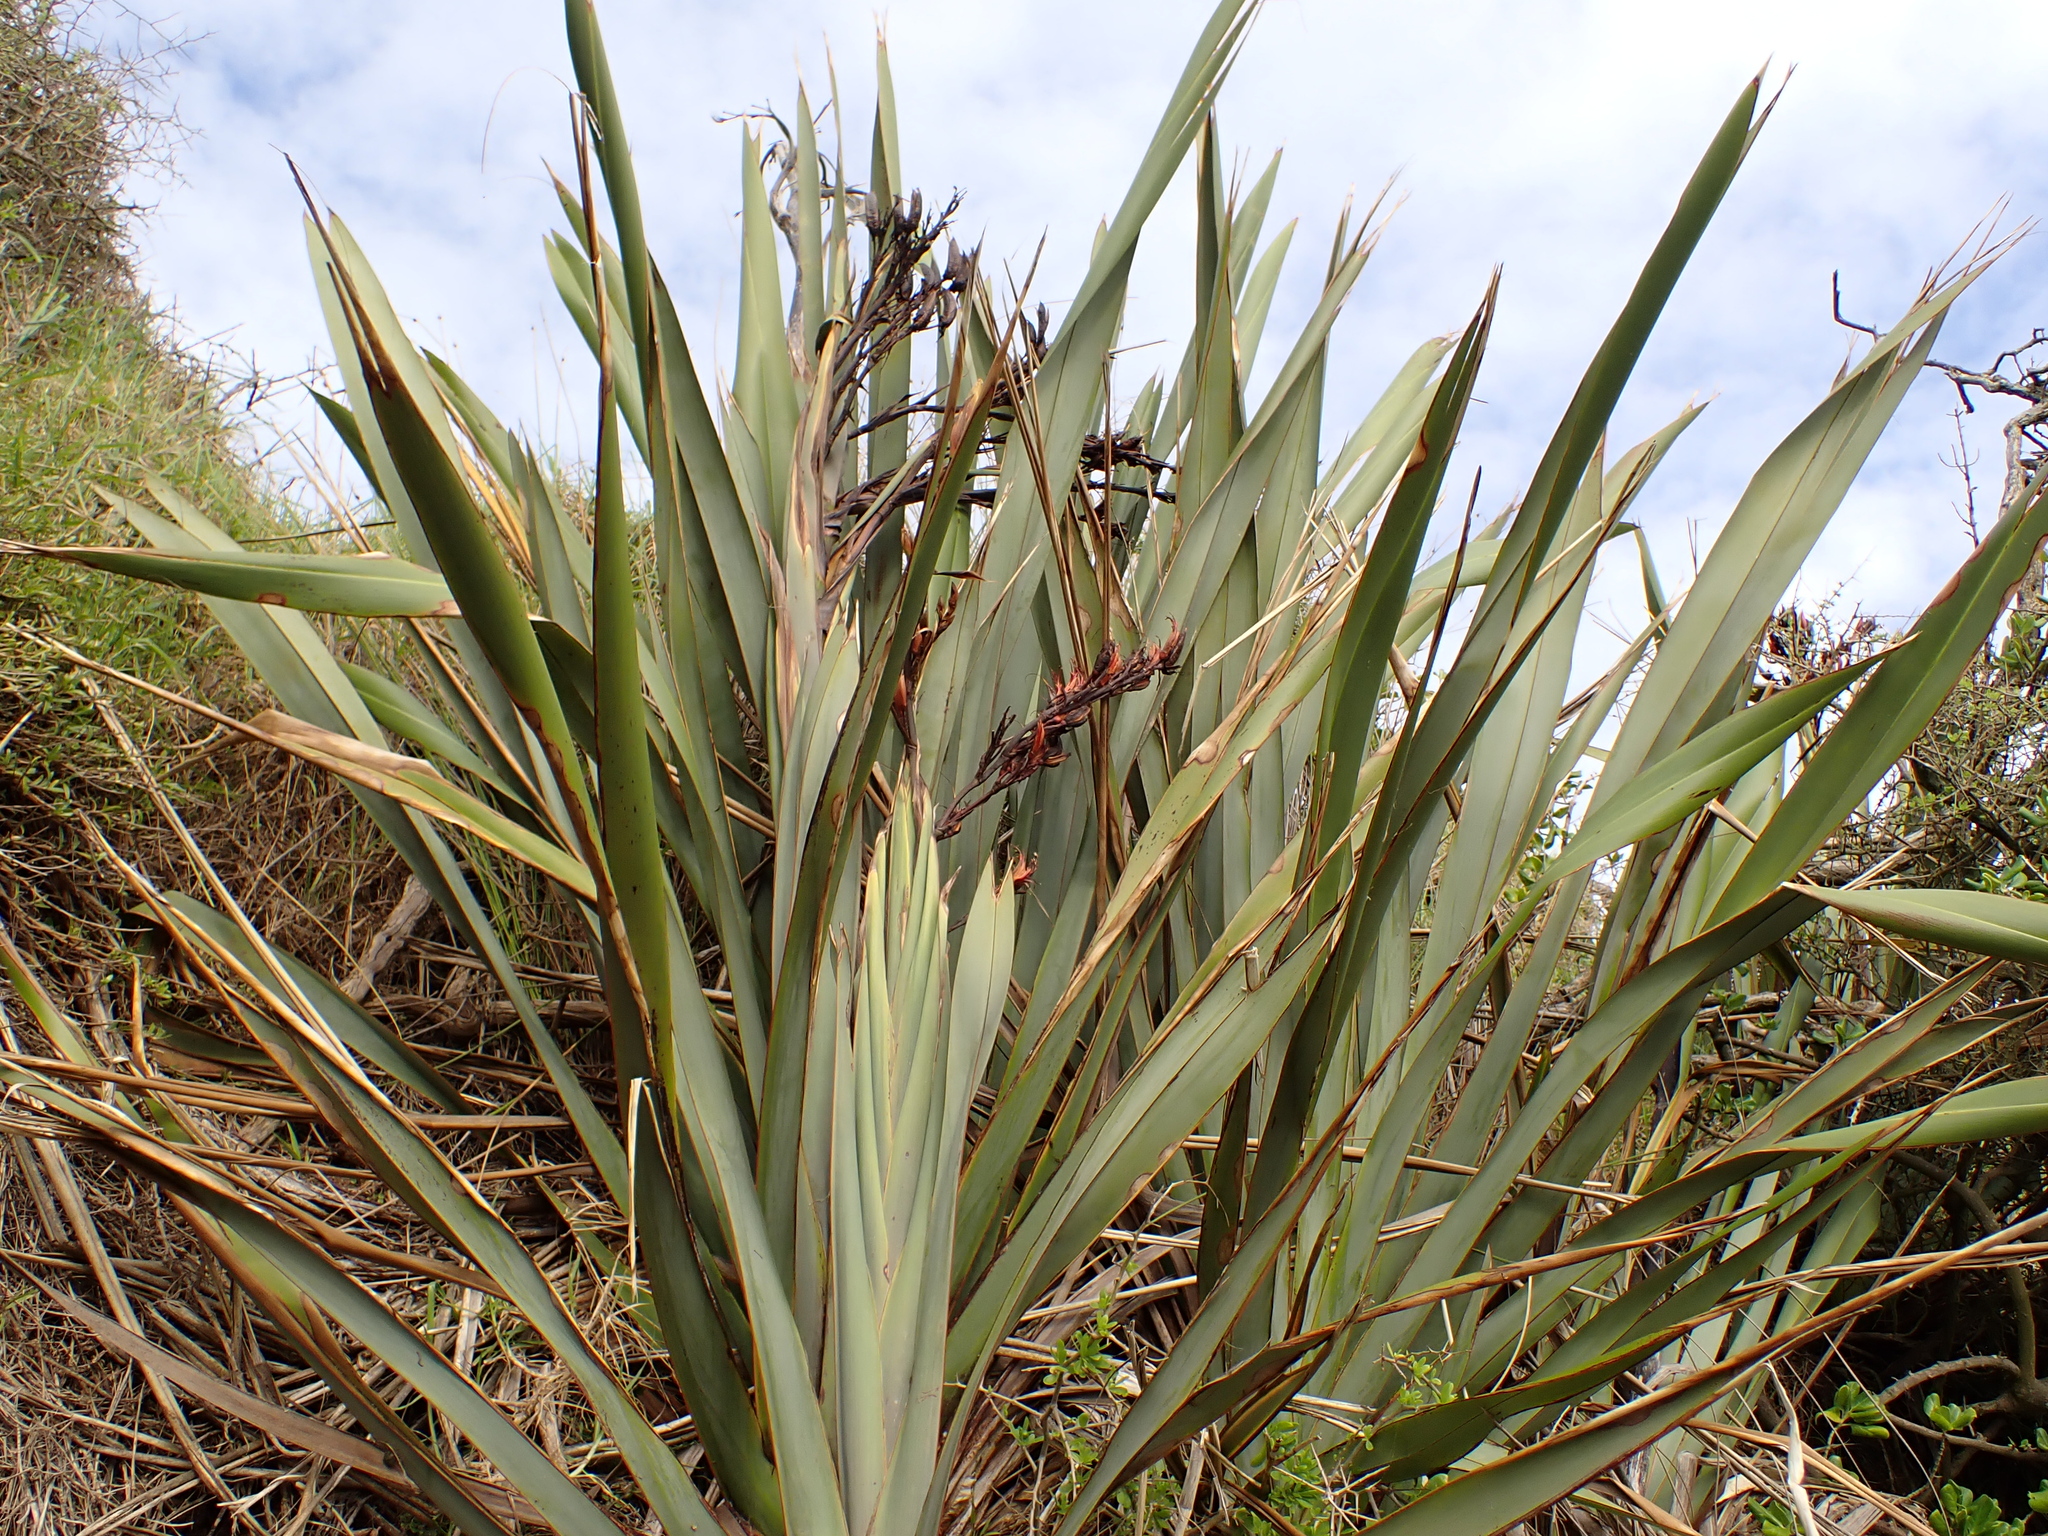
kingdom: Plantae
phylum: Tracheophyta
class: Liliopsida
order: Asparagales
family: Asphodelaceae
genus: Phormium
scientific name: Phormium tenax
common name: New zealand flax
